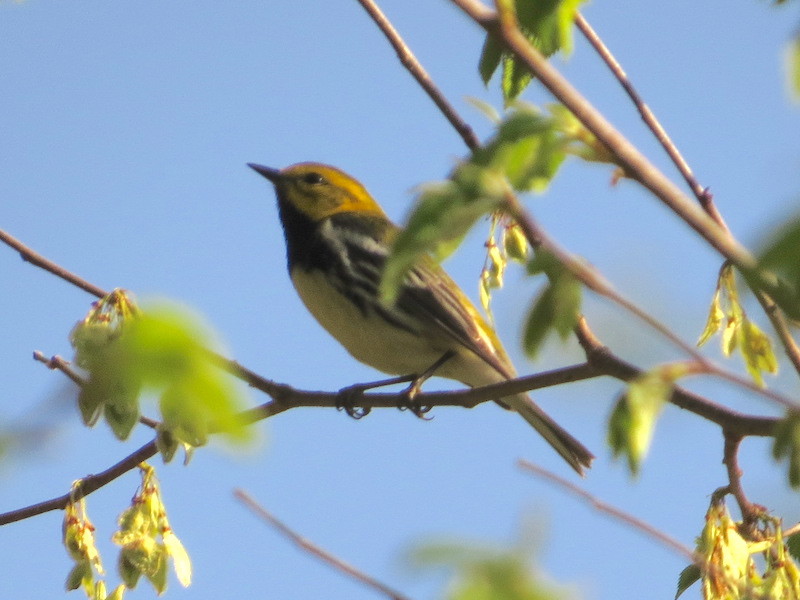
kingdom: Animalia
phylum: Chordata
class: Aves
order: Passeriformes
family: Parulidae
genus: Setophaga
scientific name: Setophaga virens
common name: Black-throated green warbler
